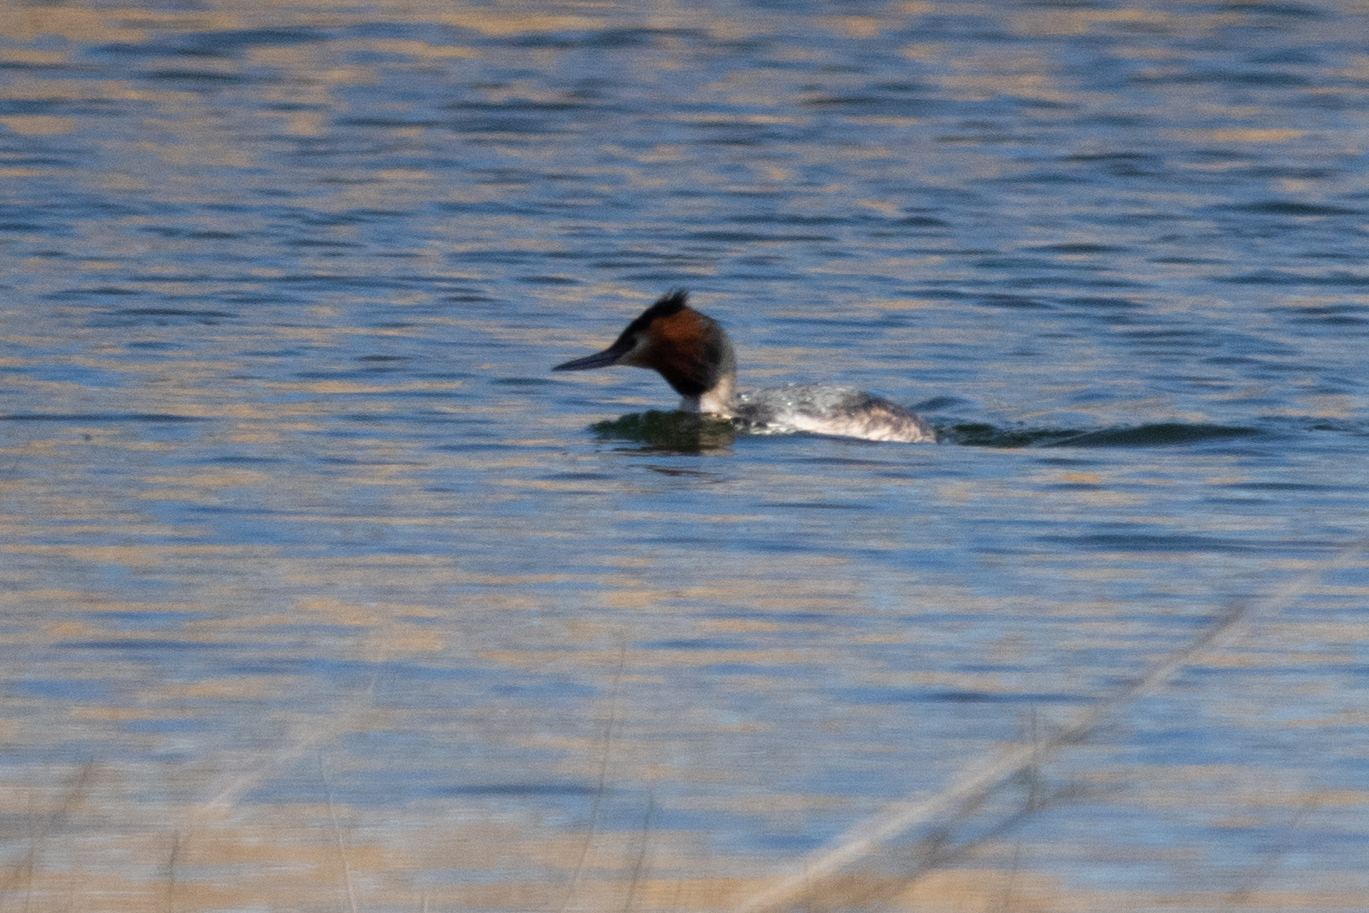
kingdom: Animalia
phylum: Chordata
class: Aves
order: Podicipediformes
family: Podicipedidae
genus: Podiceps
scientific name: Podiceps cristatus
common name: Great crested grebe
